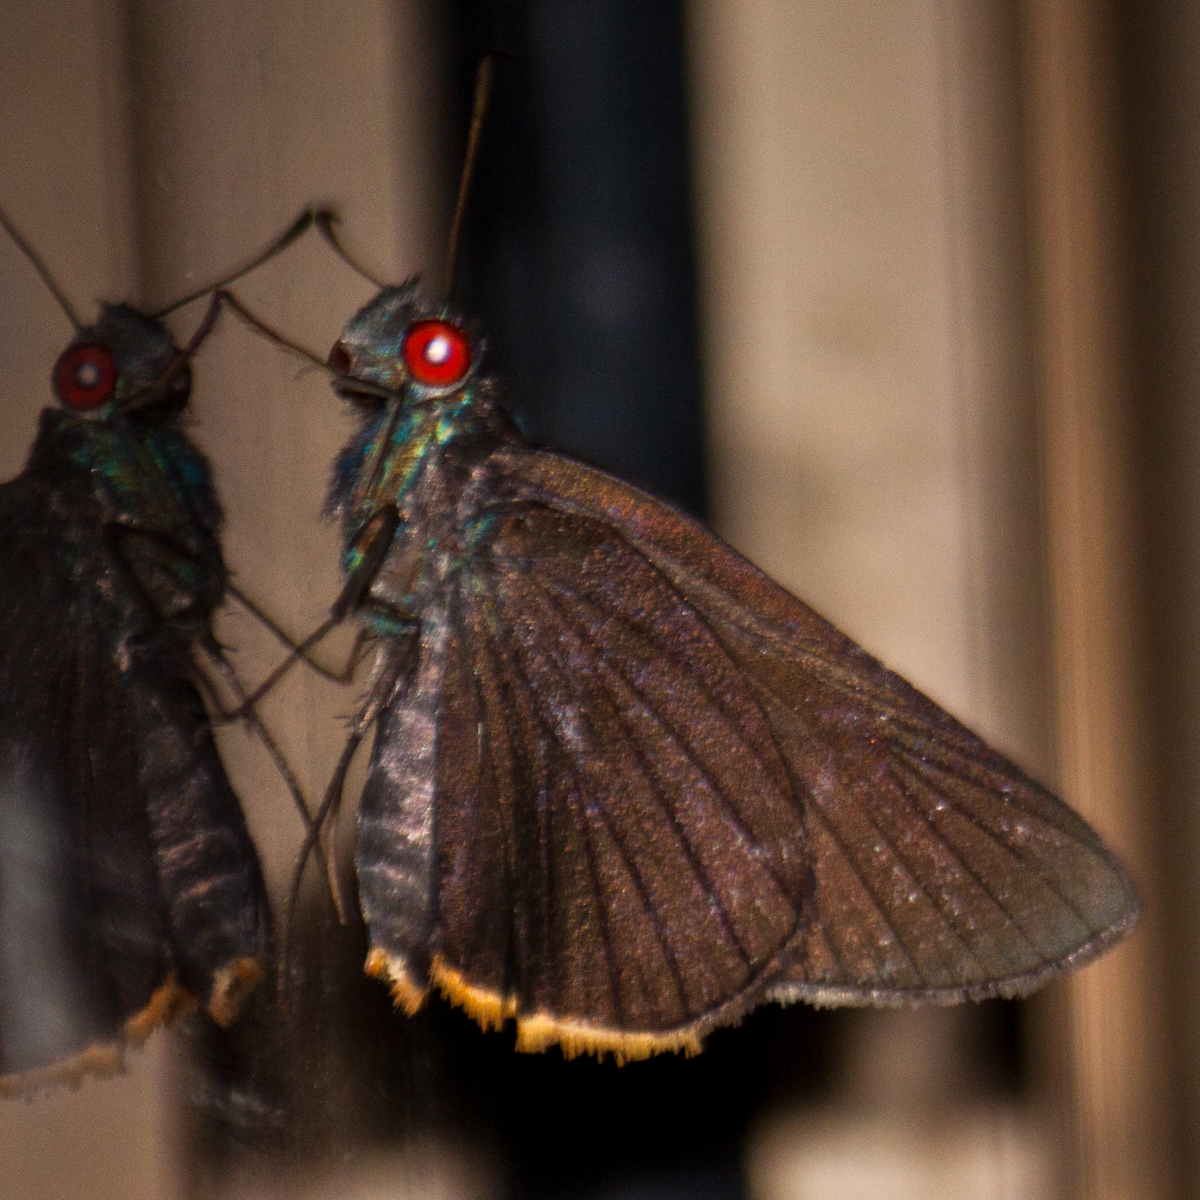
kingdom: Animalia
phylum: Arthropoda
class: Insecta
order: Lepidoptera
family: Hesperiidae
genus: Matapa
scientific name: Matapa sasivarna
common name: Black-veined redeye
